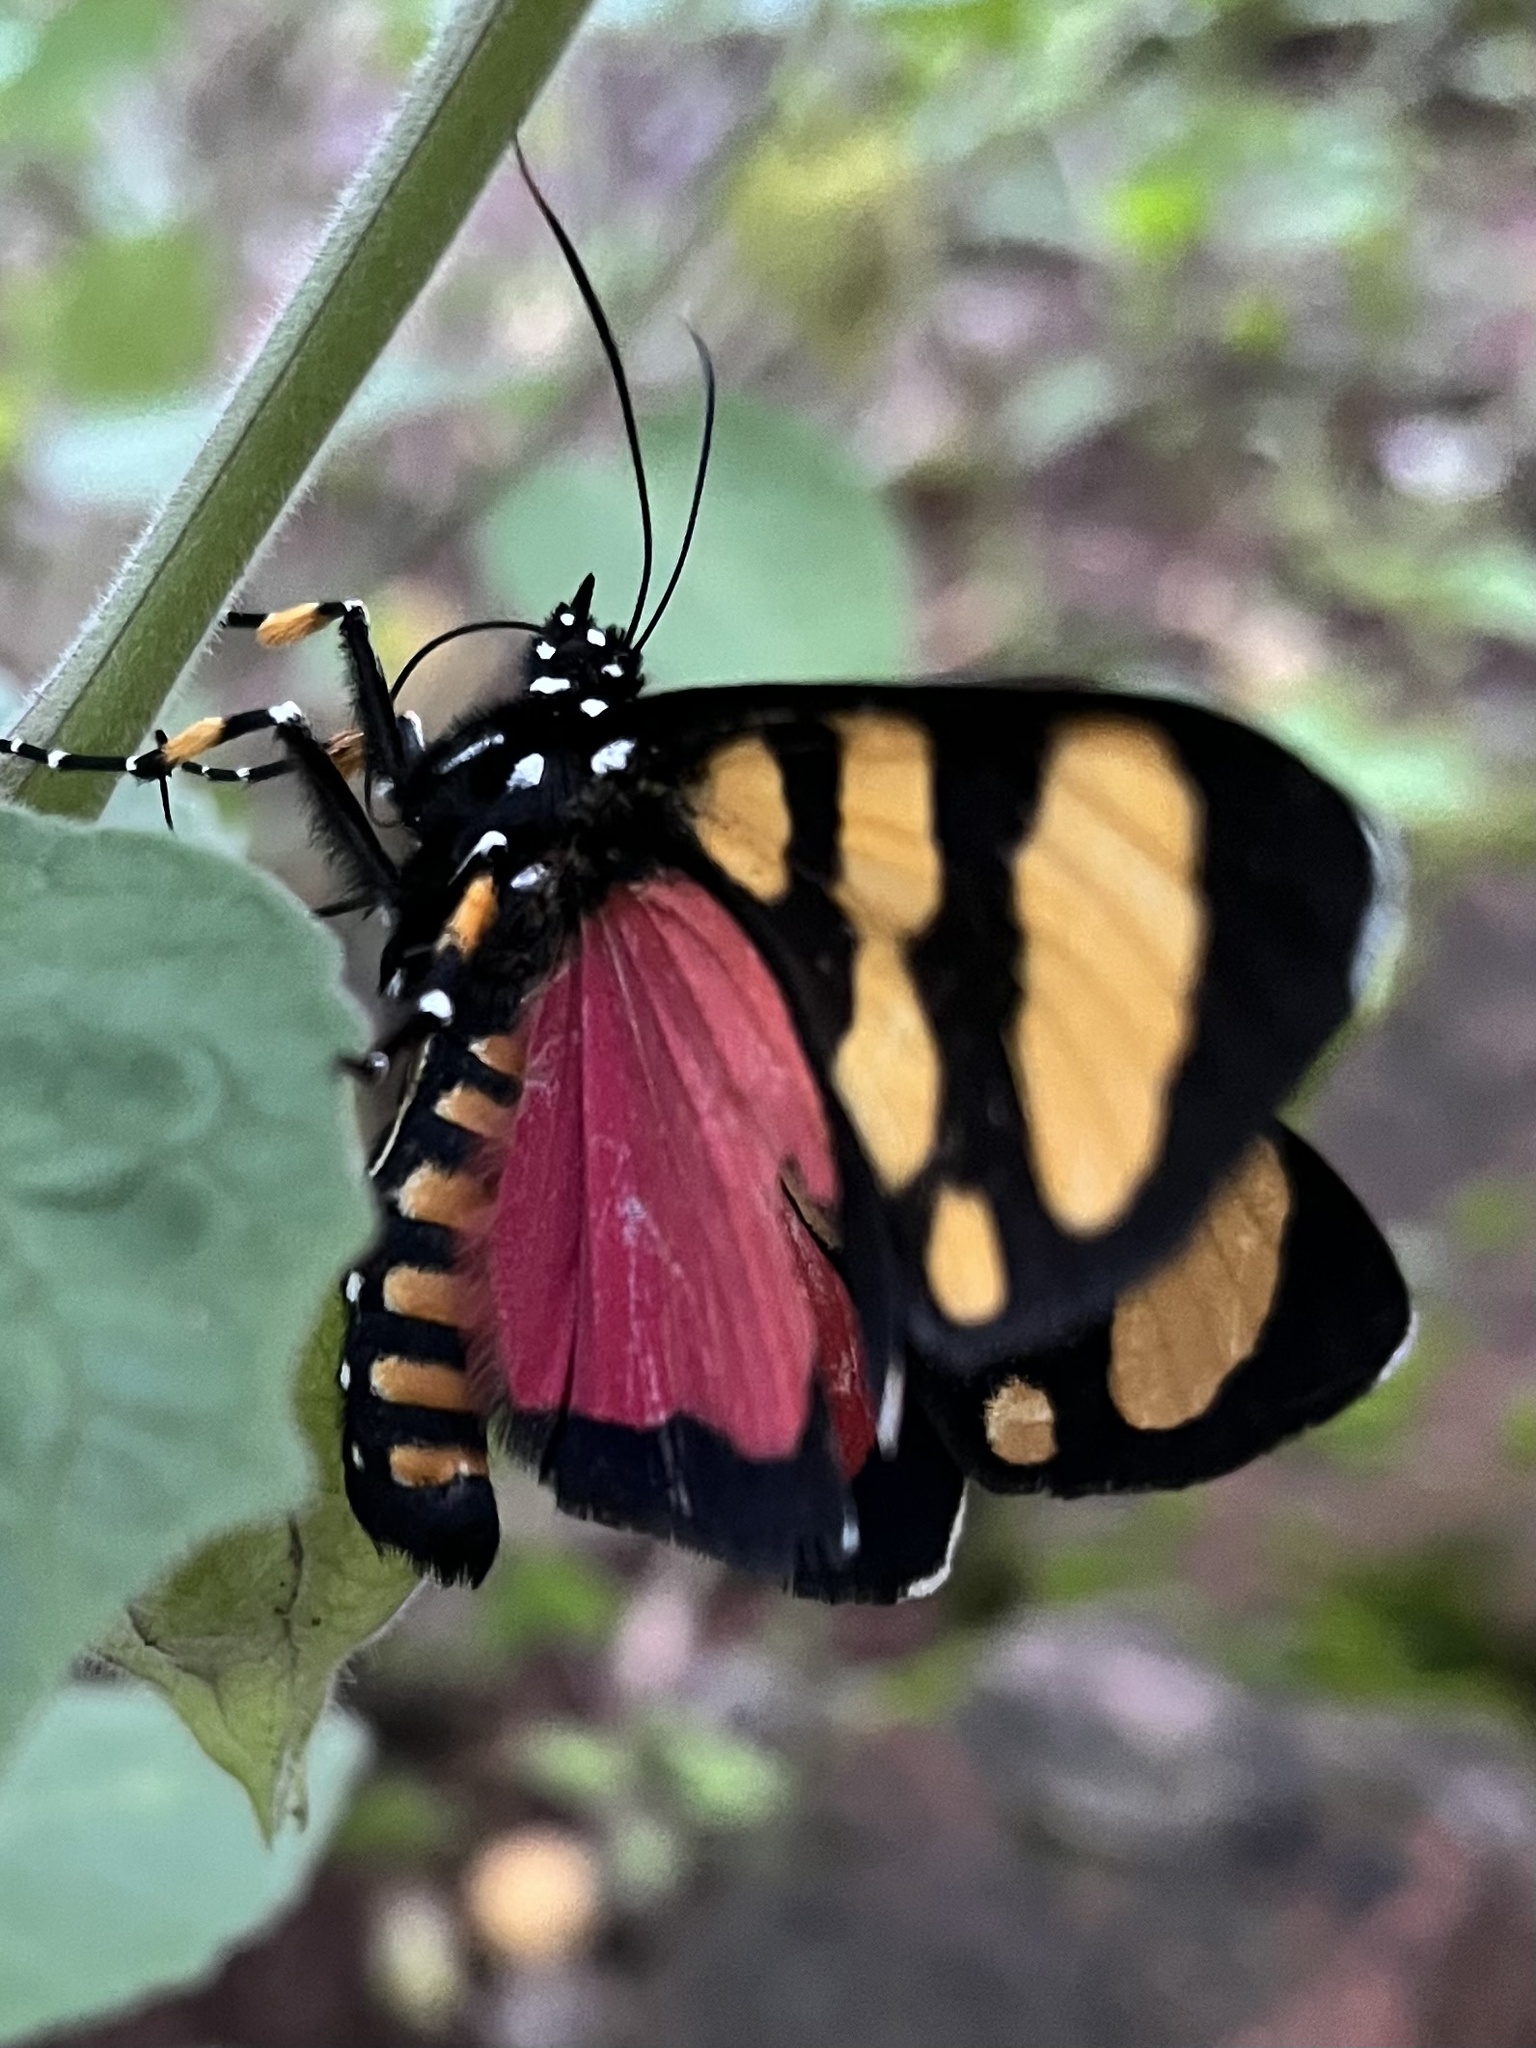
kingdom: Animalia
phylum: Arthropoda
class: Insecta
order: Lepidoptera
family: Noctuidae
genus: Heraclia
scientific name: Heraclia superba
